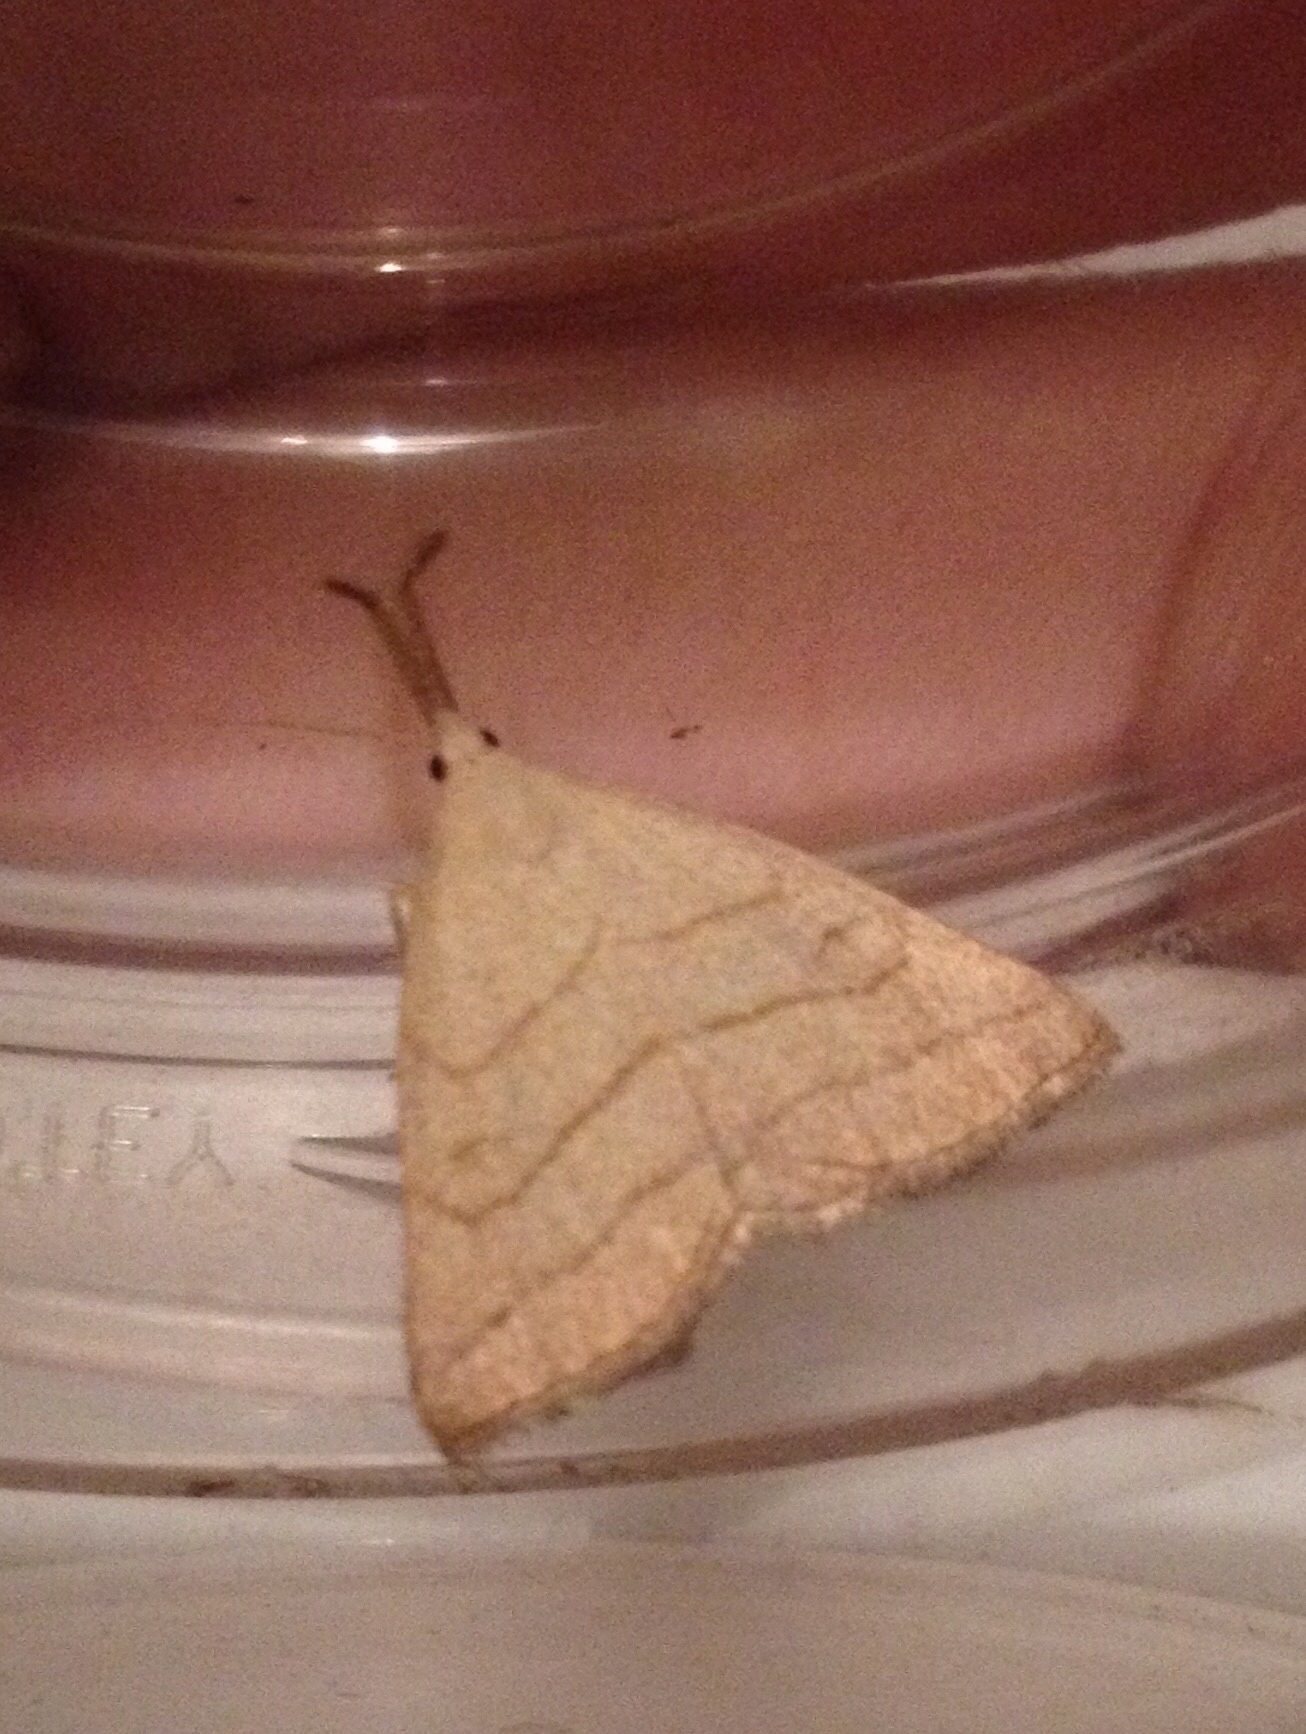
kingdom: Animalia
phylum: Arthropoda
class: Insecta
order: Lepidoptera
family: Erebidae
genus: Polypogon
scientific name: Polypogon tentacularia
